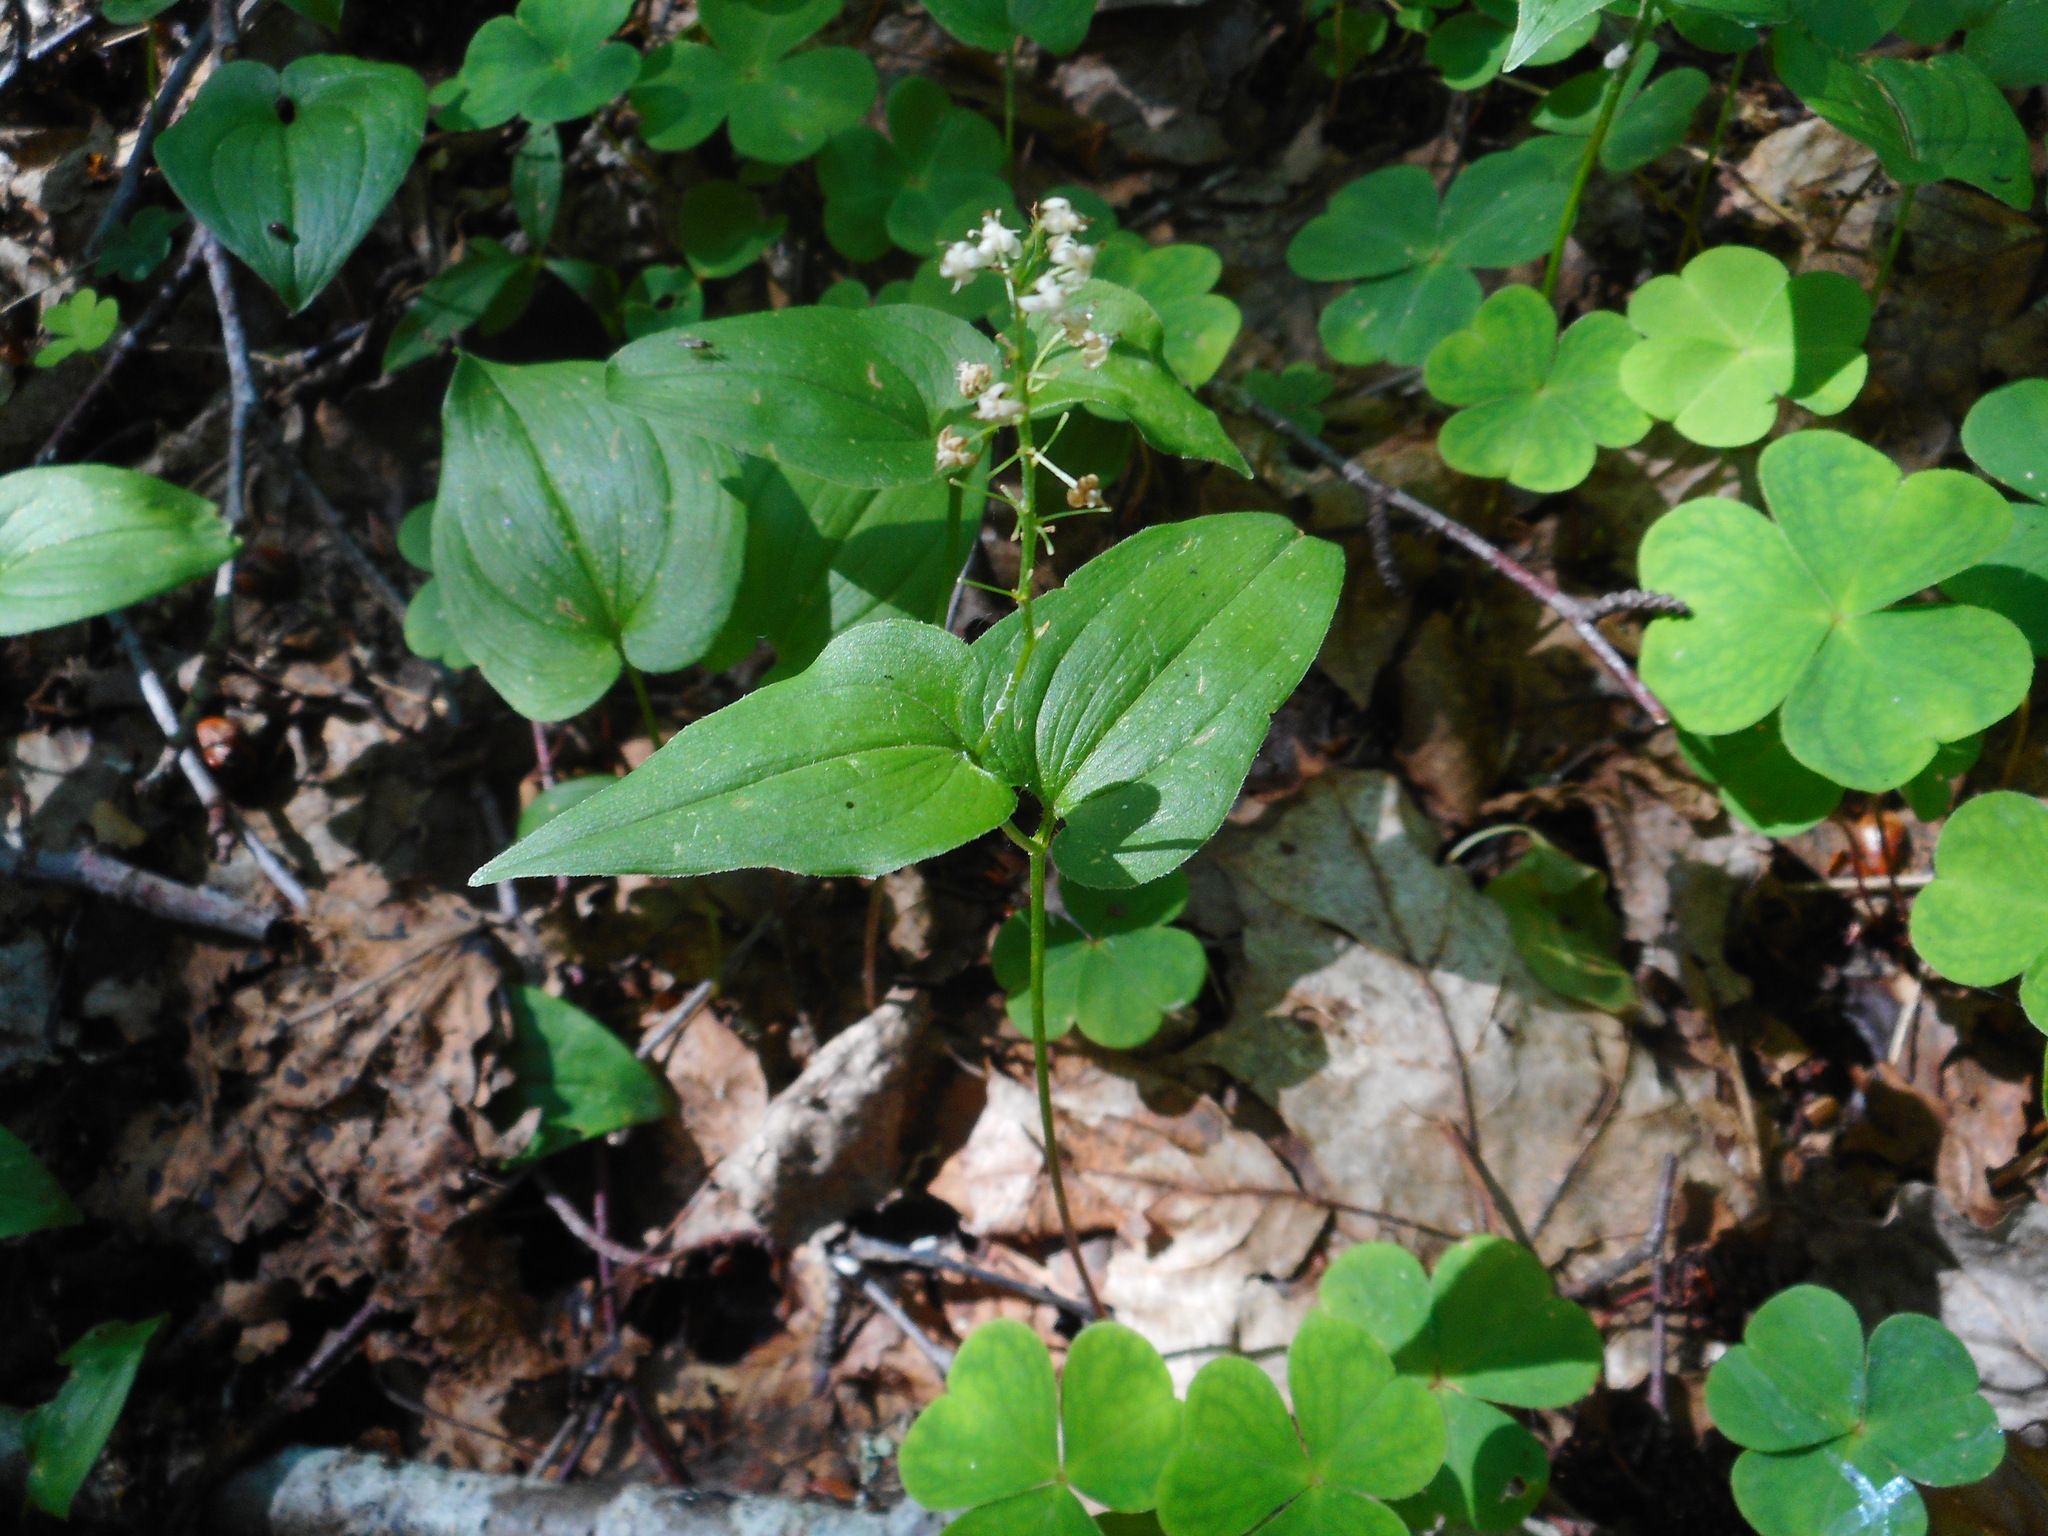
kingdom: Plantae
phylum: Tracheophyta
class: Liliopsida
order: Asparagales
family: Asparagaceae
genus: Maianthemum
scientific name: Maianthemum bifolium
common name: May lily
